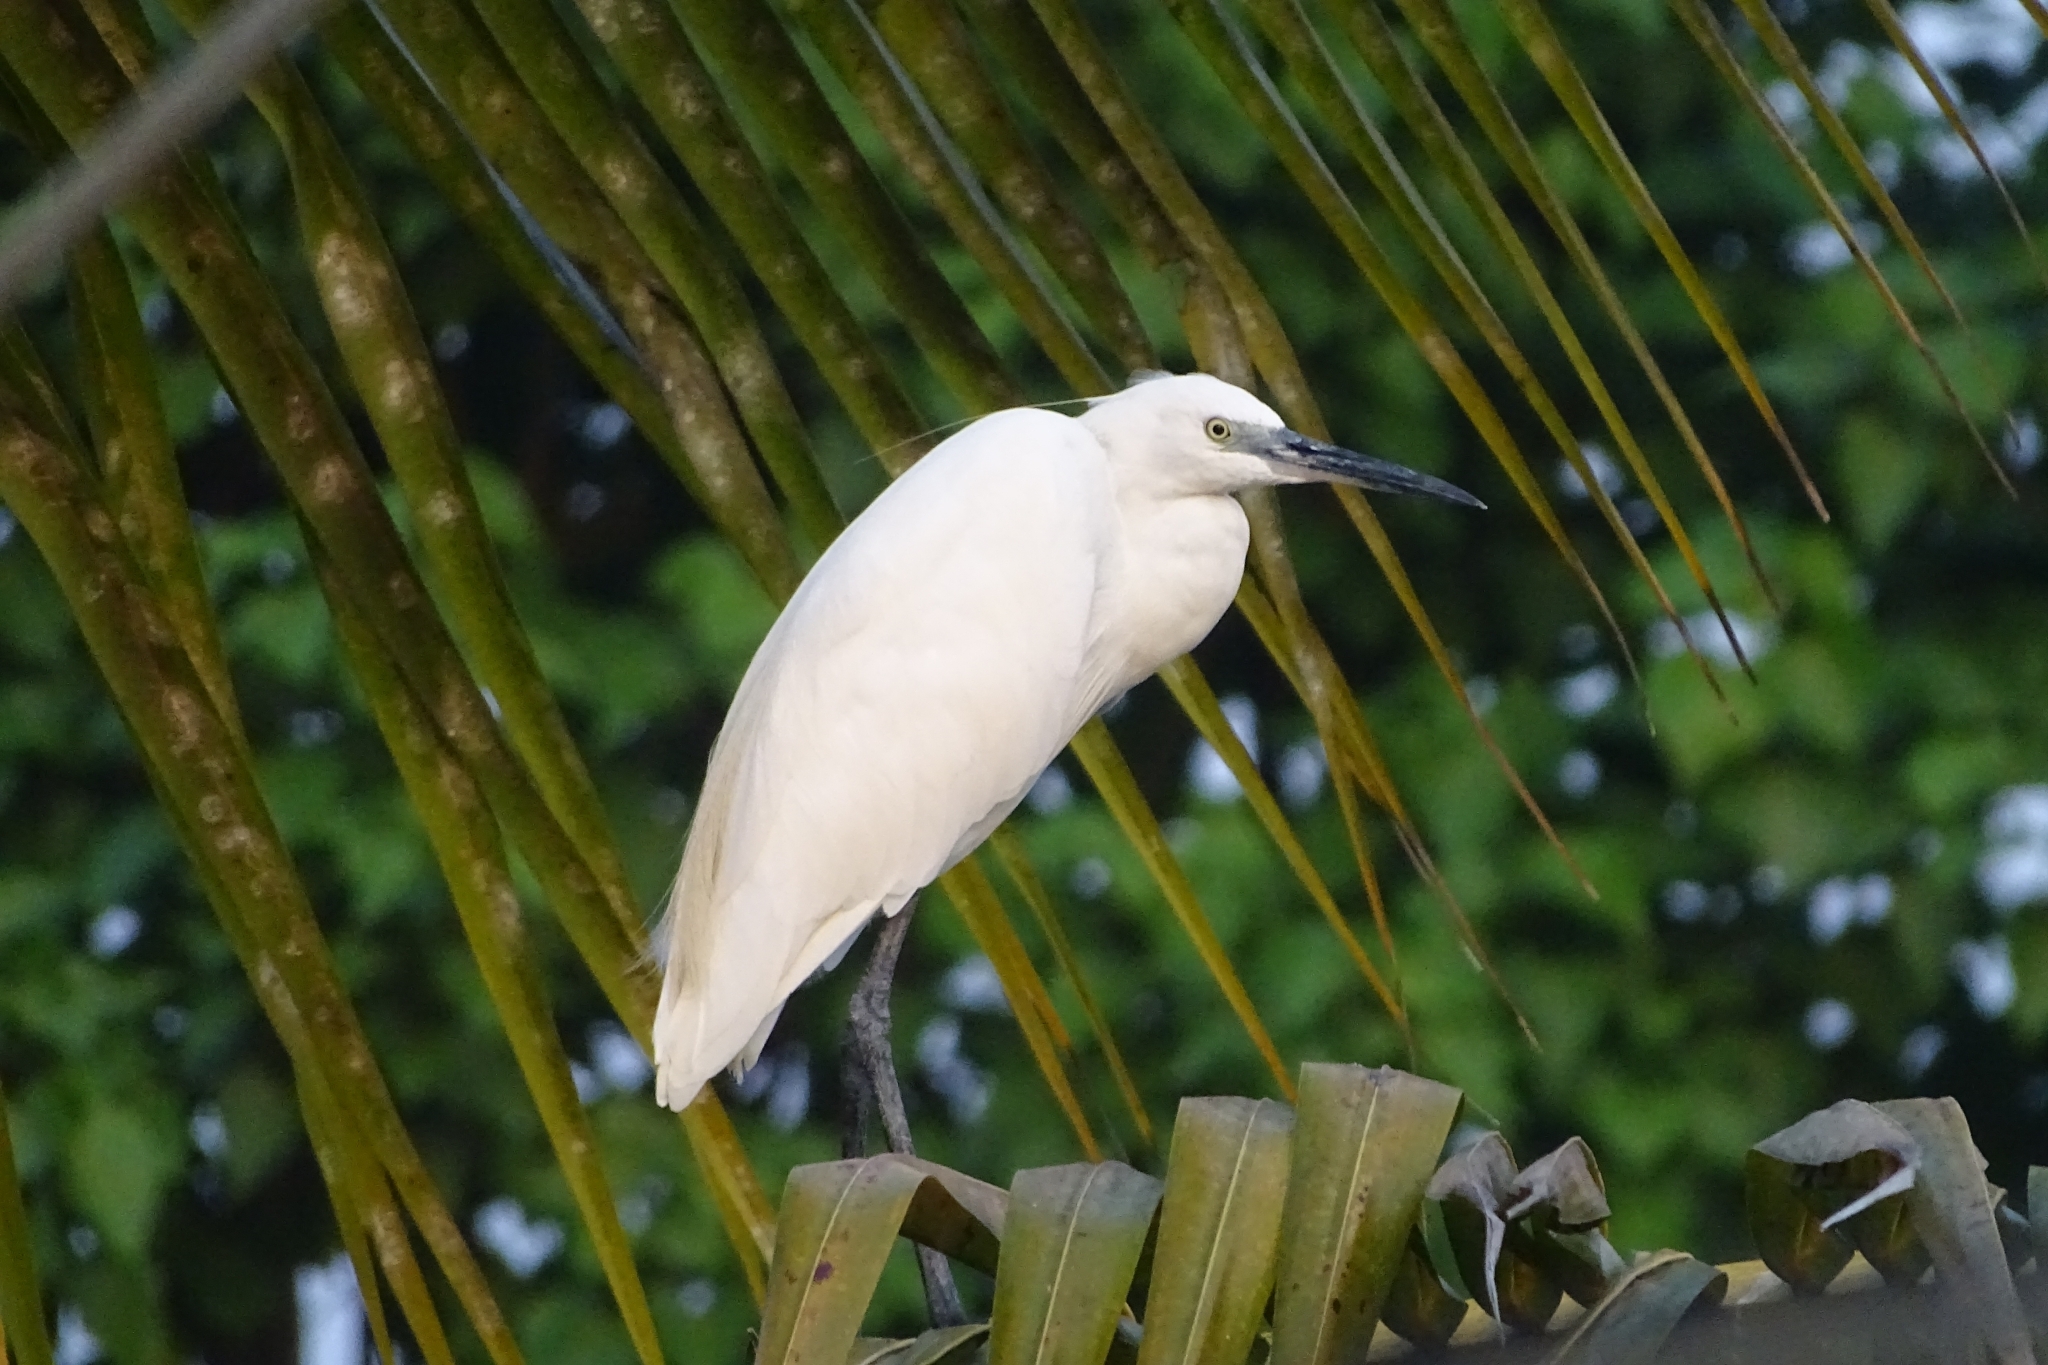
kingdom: Animalia
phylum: Chordata
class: Aves
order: Pelecaniformes
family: Ardeidae
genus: Egretta
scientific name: Egretta garzetta
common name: Little egret
